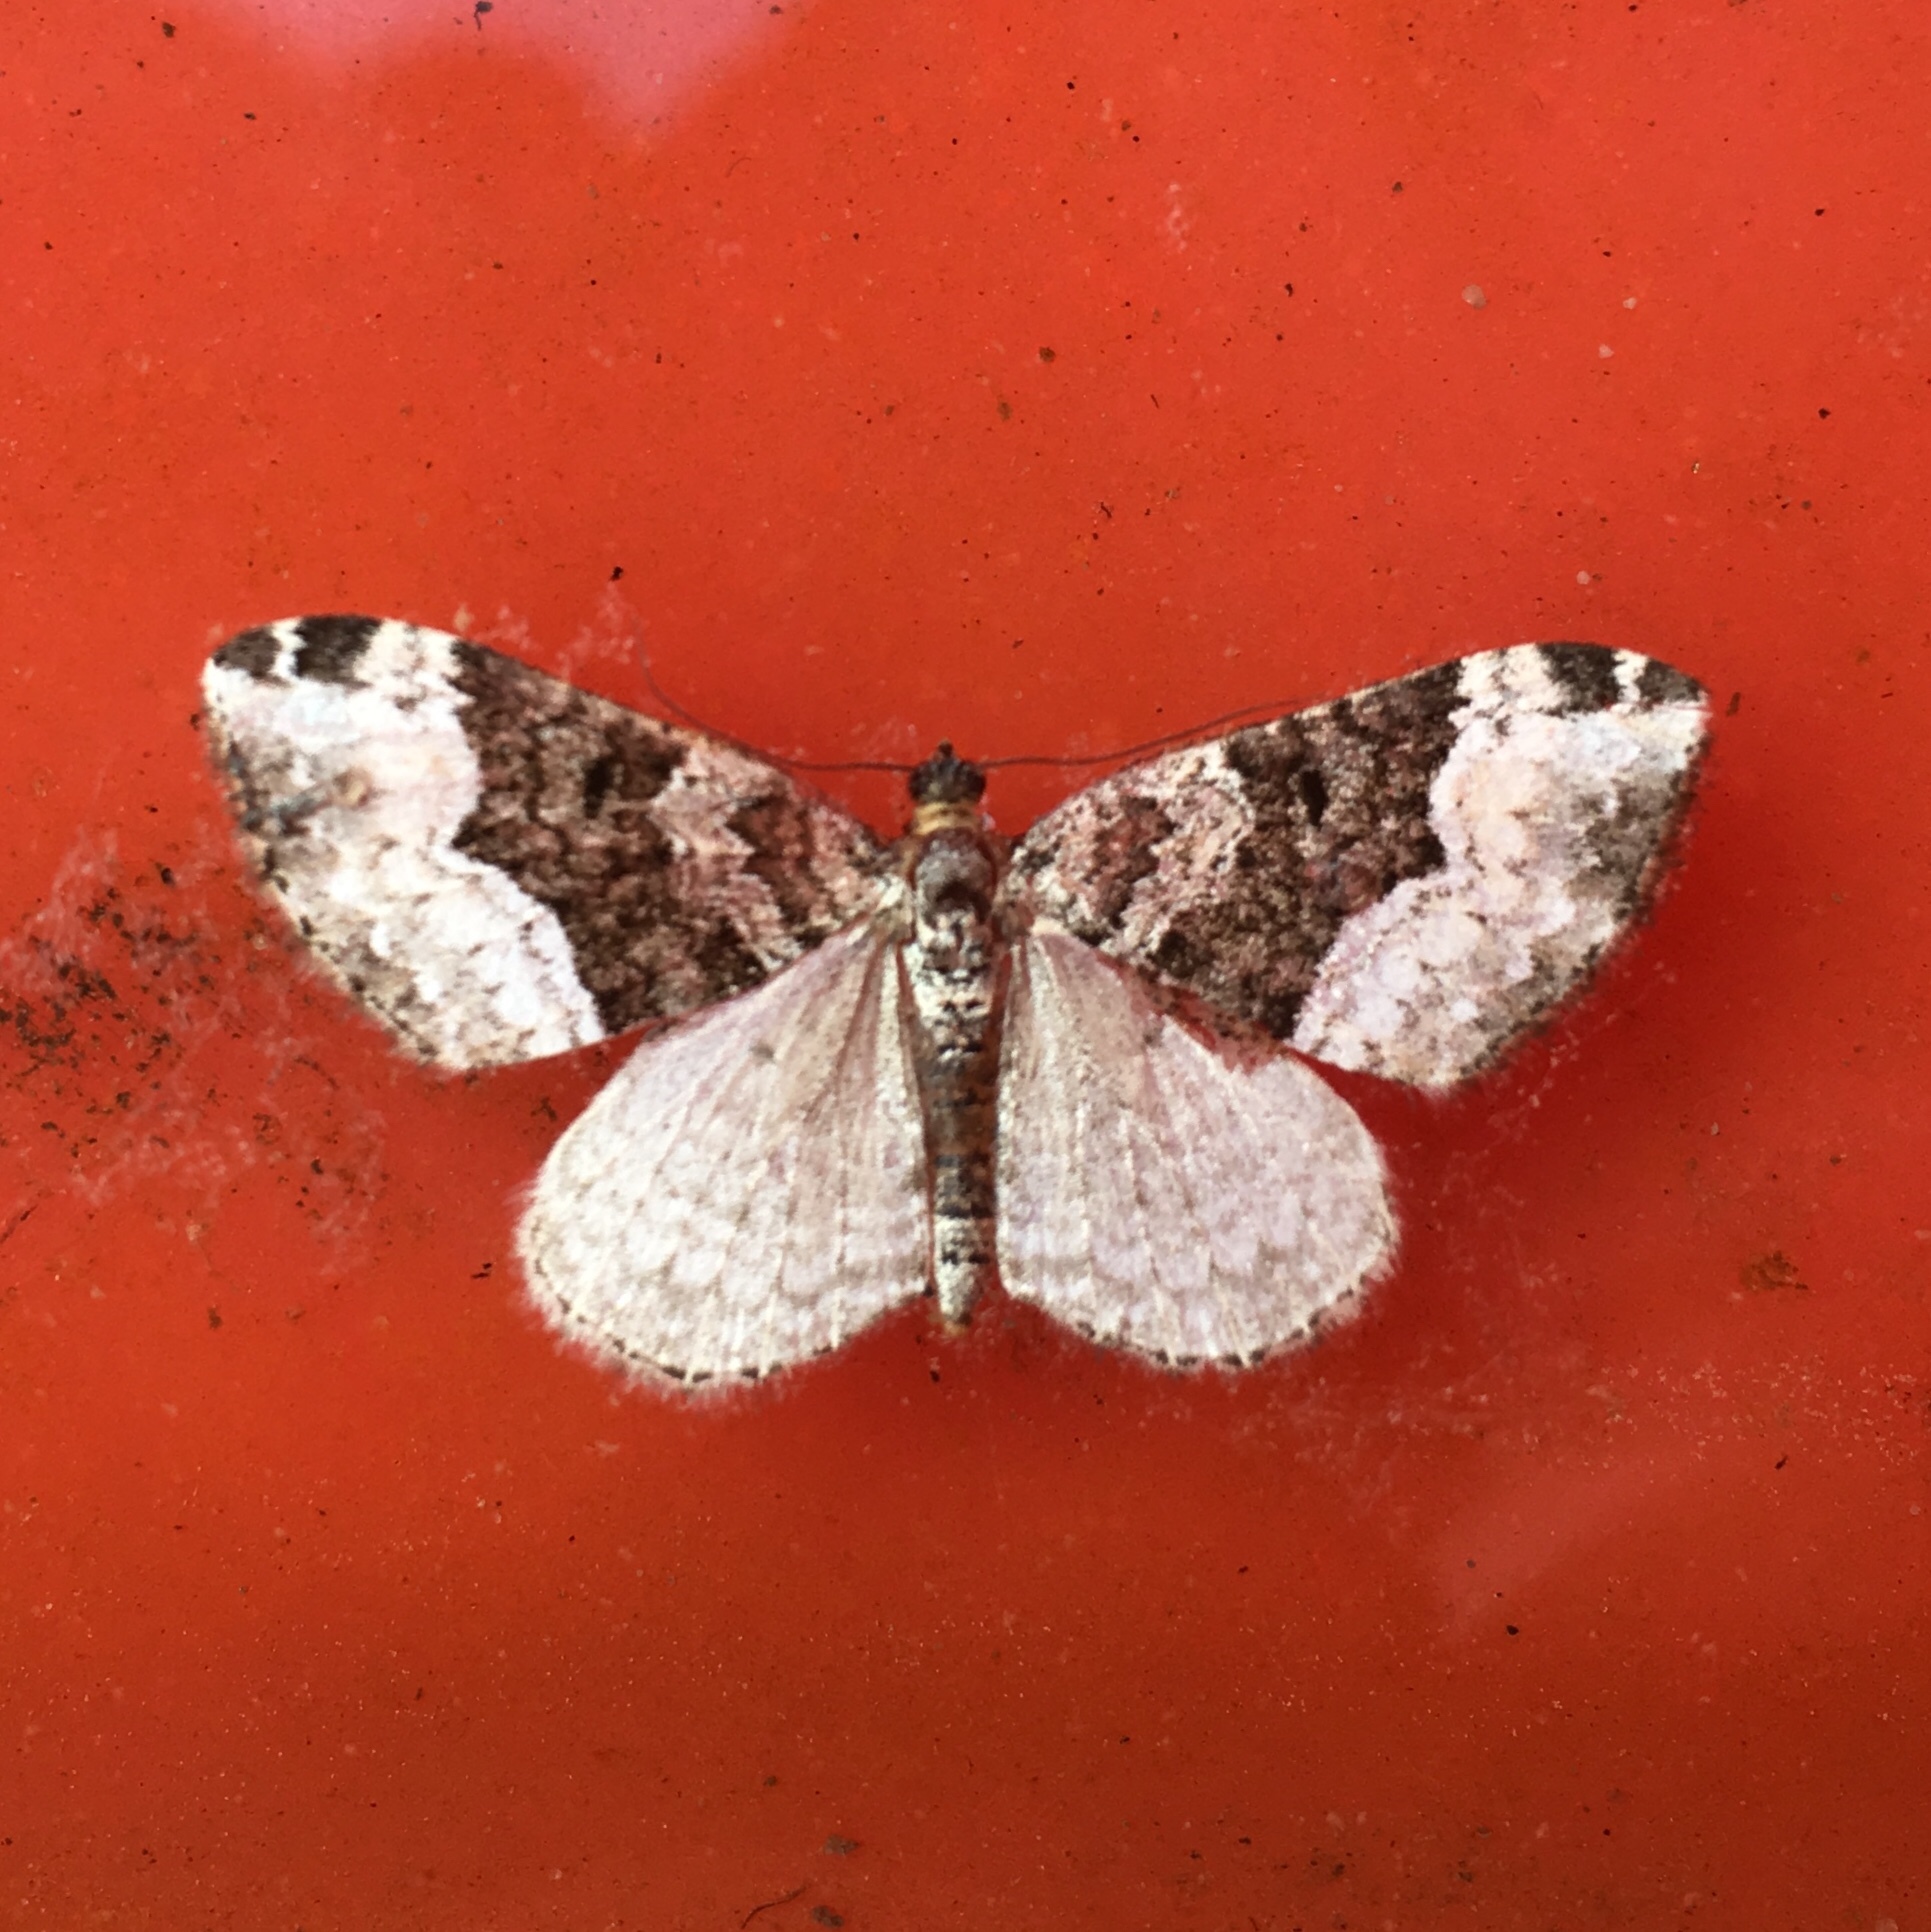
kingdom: Animalia
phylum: Arthropoda
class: Insecta
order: Lepidoptera
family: Geometridae
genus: Euphyia
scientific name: Euphyia intermediata
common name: Sharp-angled carpet
